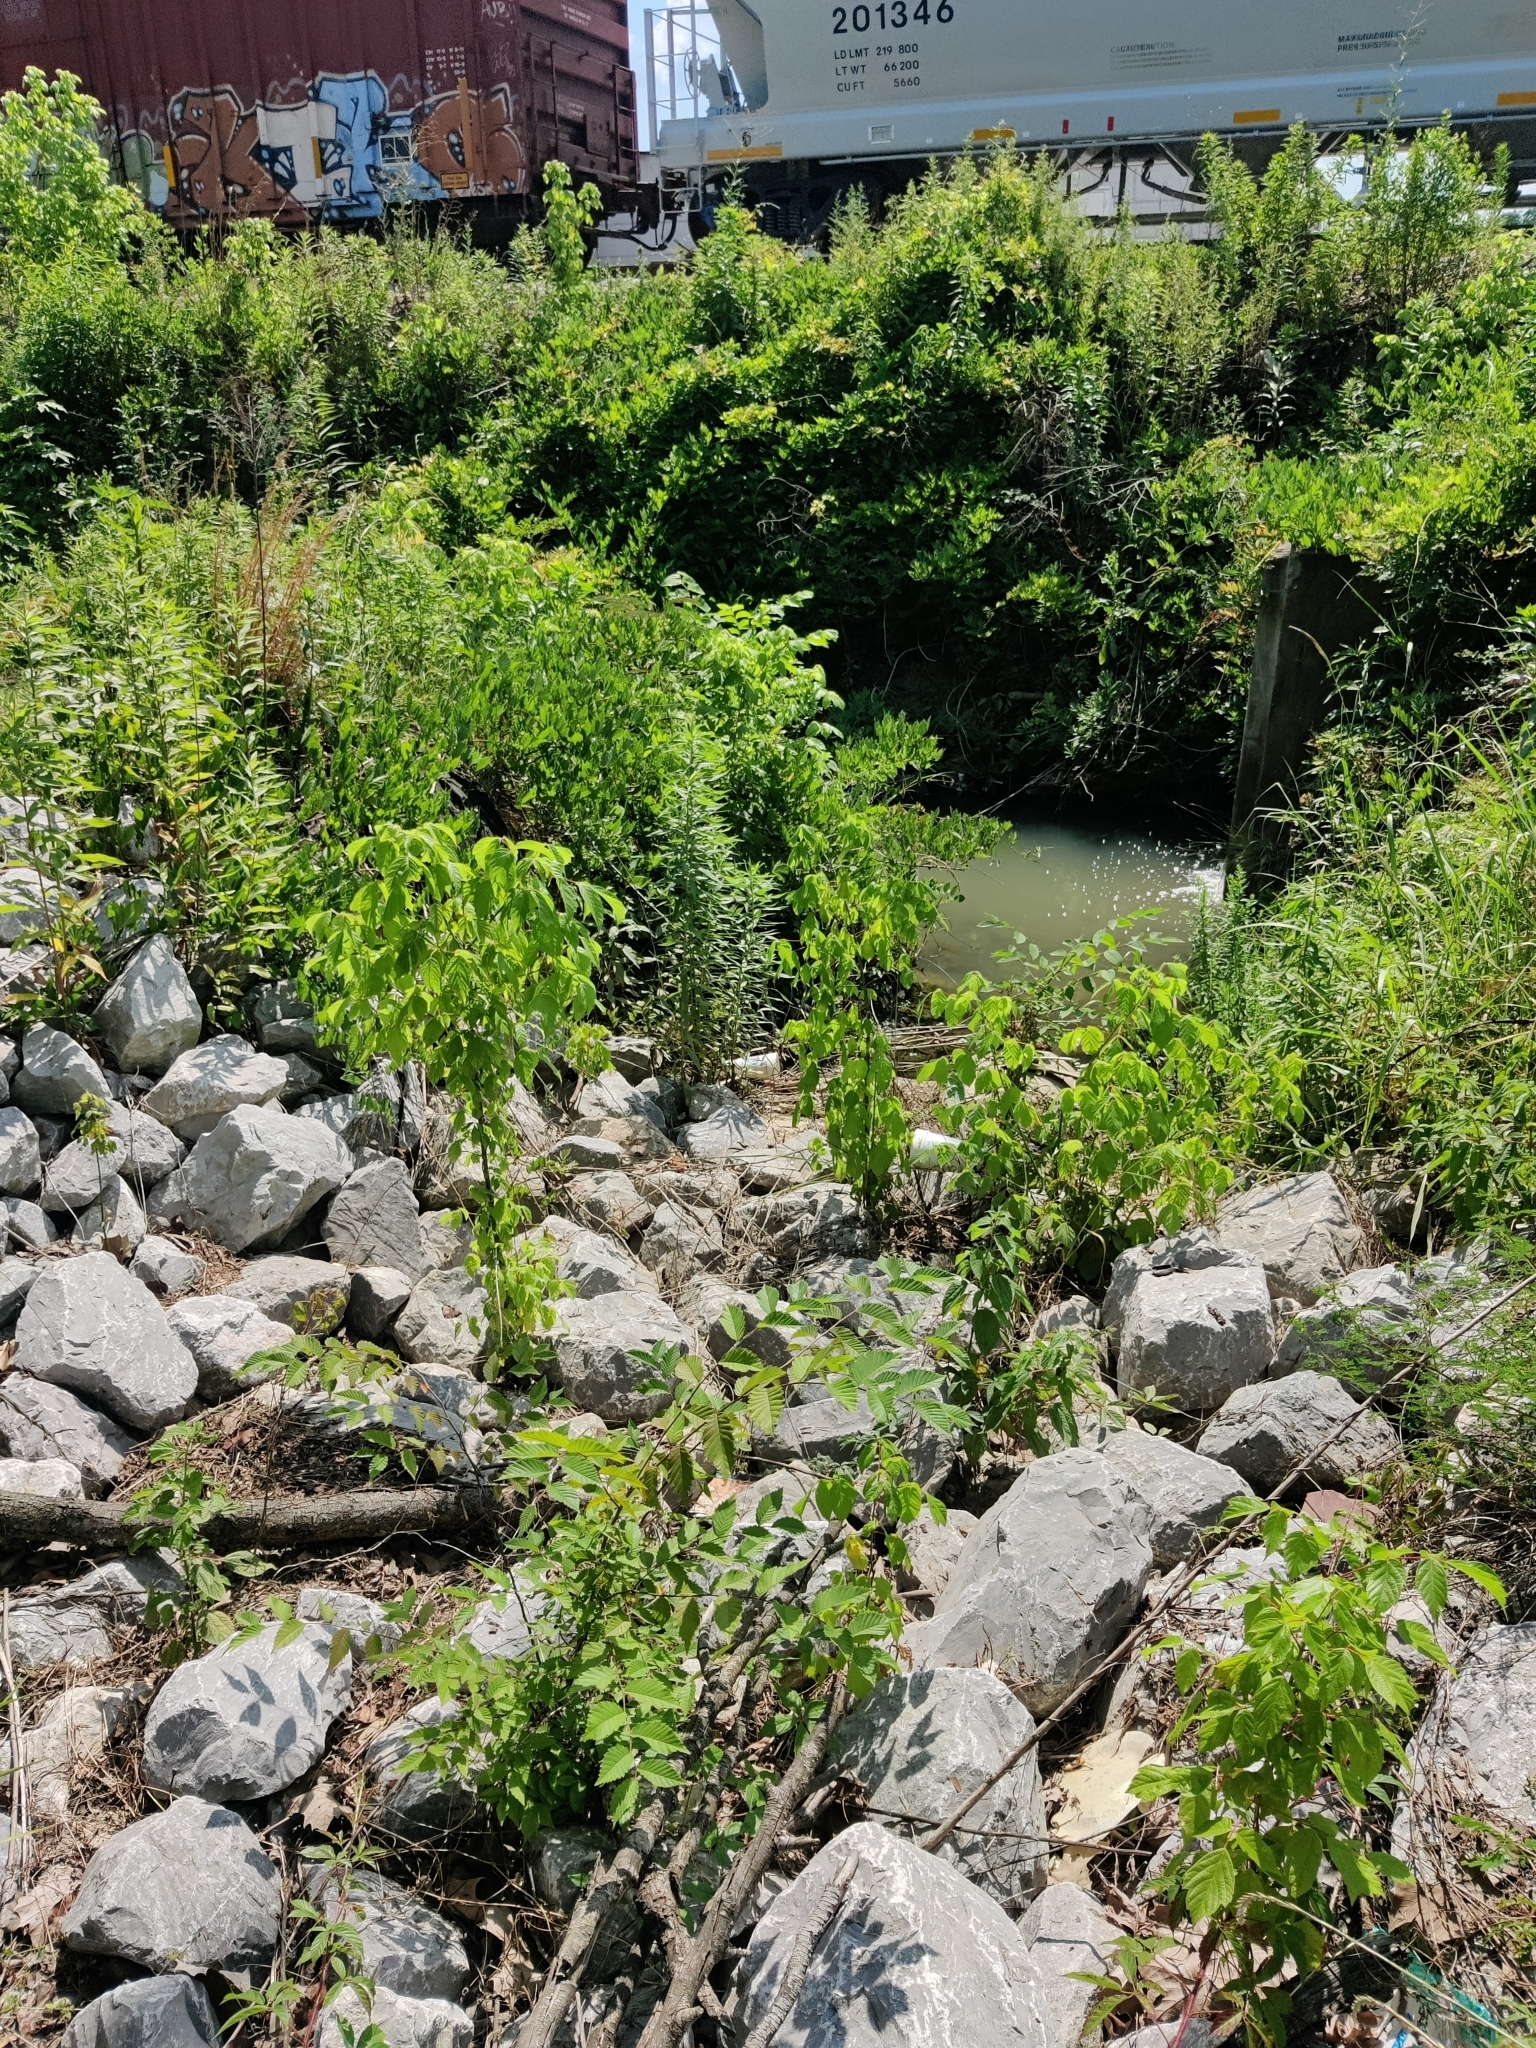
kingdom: Plantae
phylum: Tracheophyta
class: Magnoliopsida
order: Sapindales
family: Sapindaceae
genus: Acer
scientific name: Acer negundo
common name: Ashleaf maple
